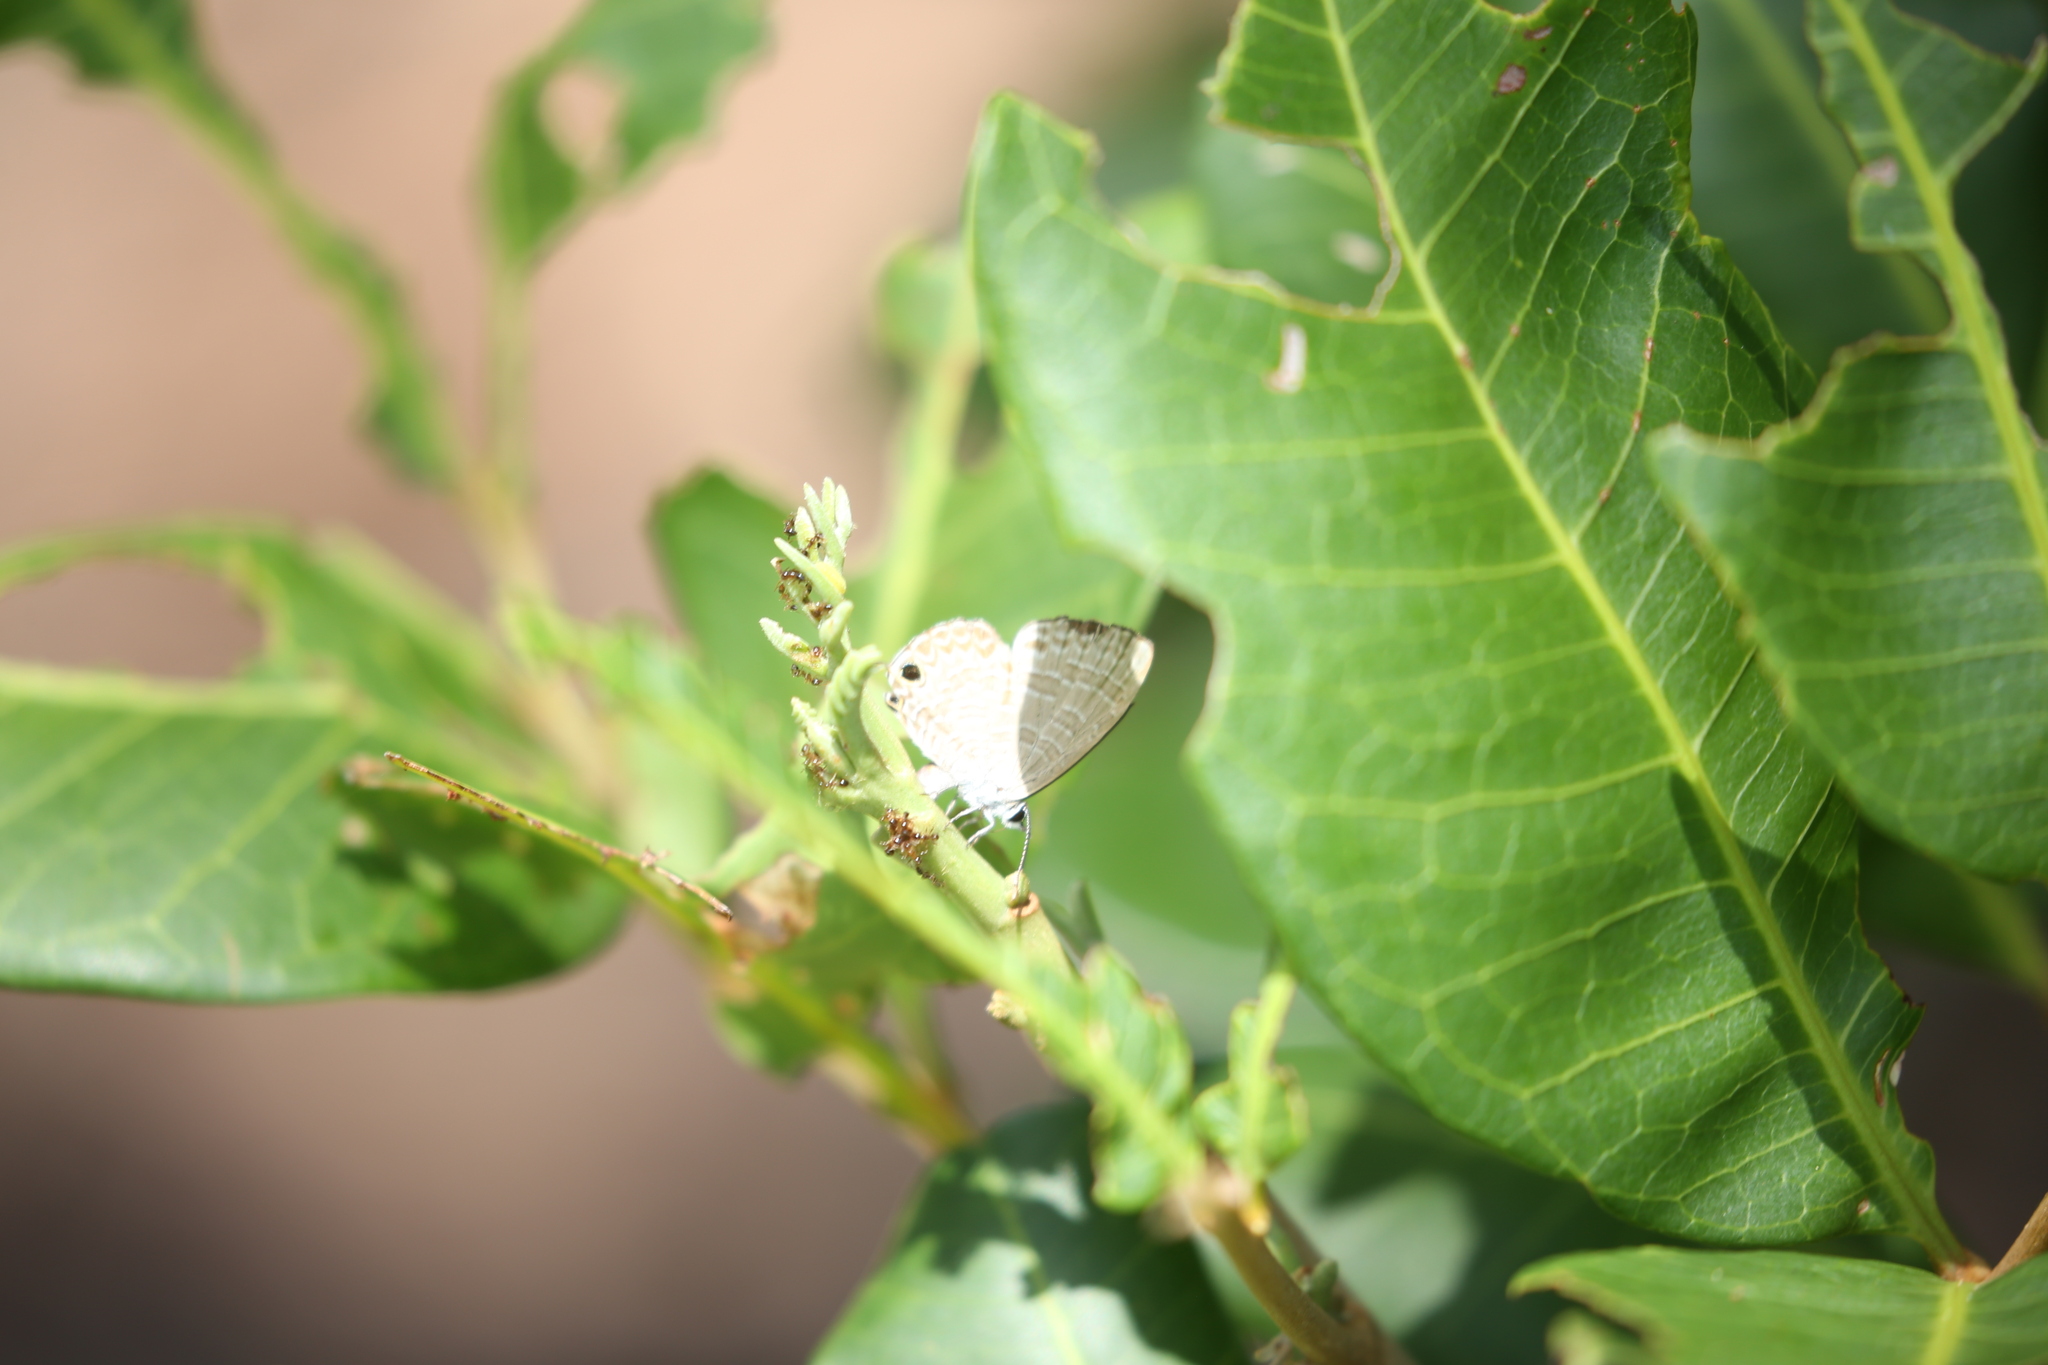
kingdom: Animalia
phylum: Arthropoda
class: Insecta
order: Lepidoptera
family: Lycaenidae
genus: Nacaduba
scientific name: Nacaduba berenice
